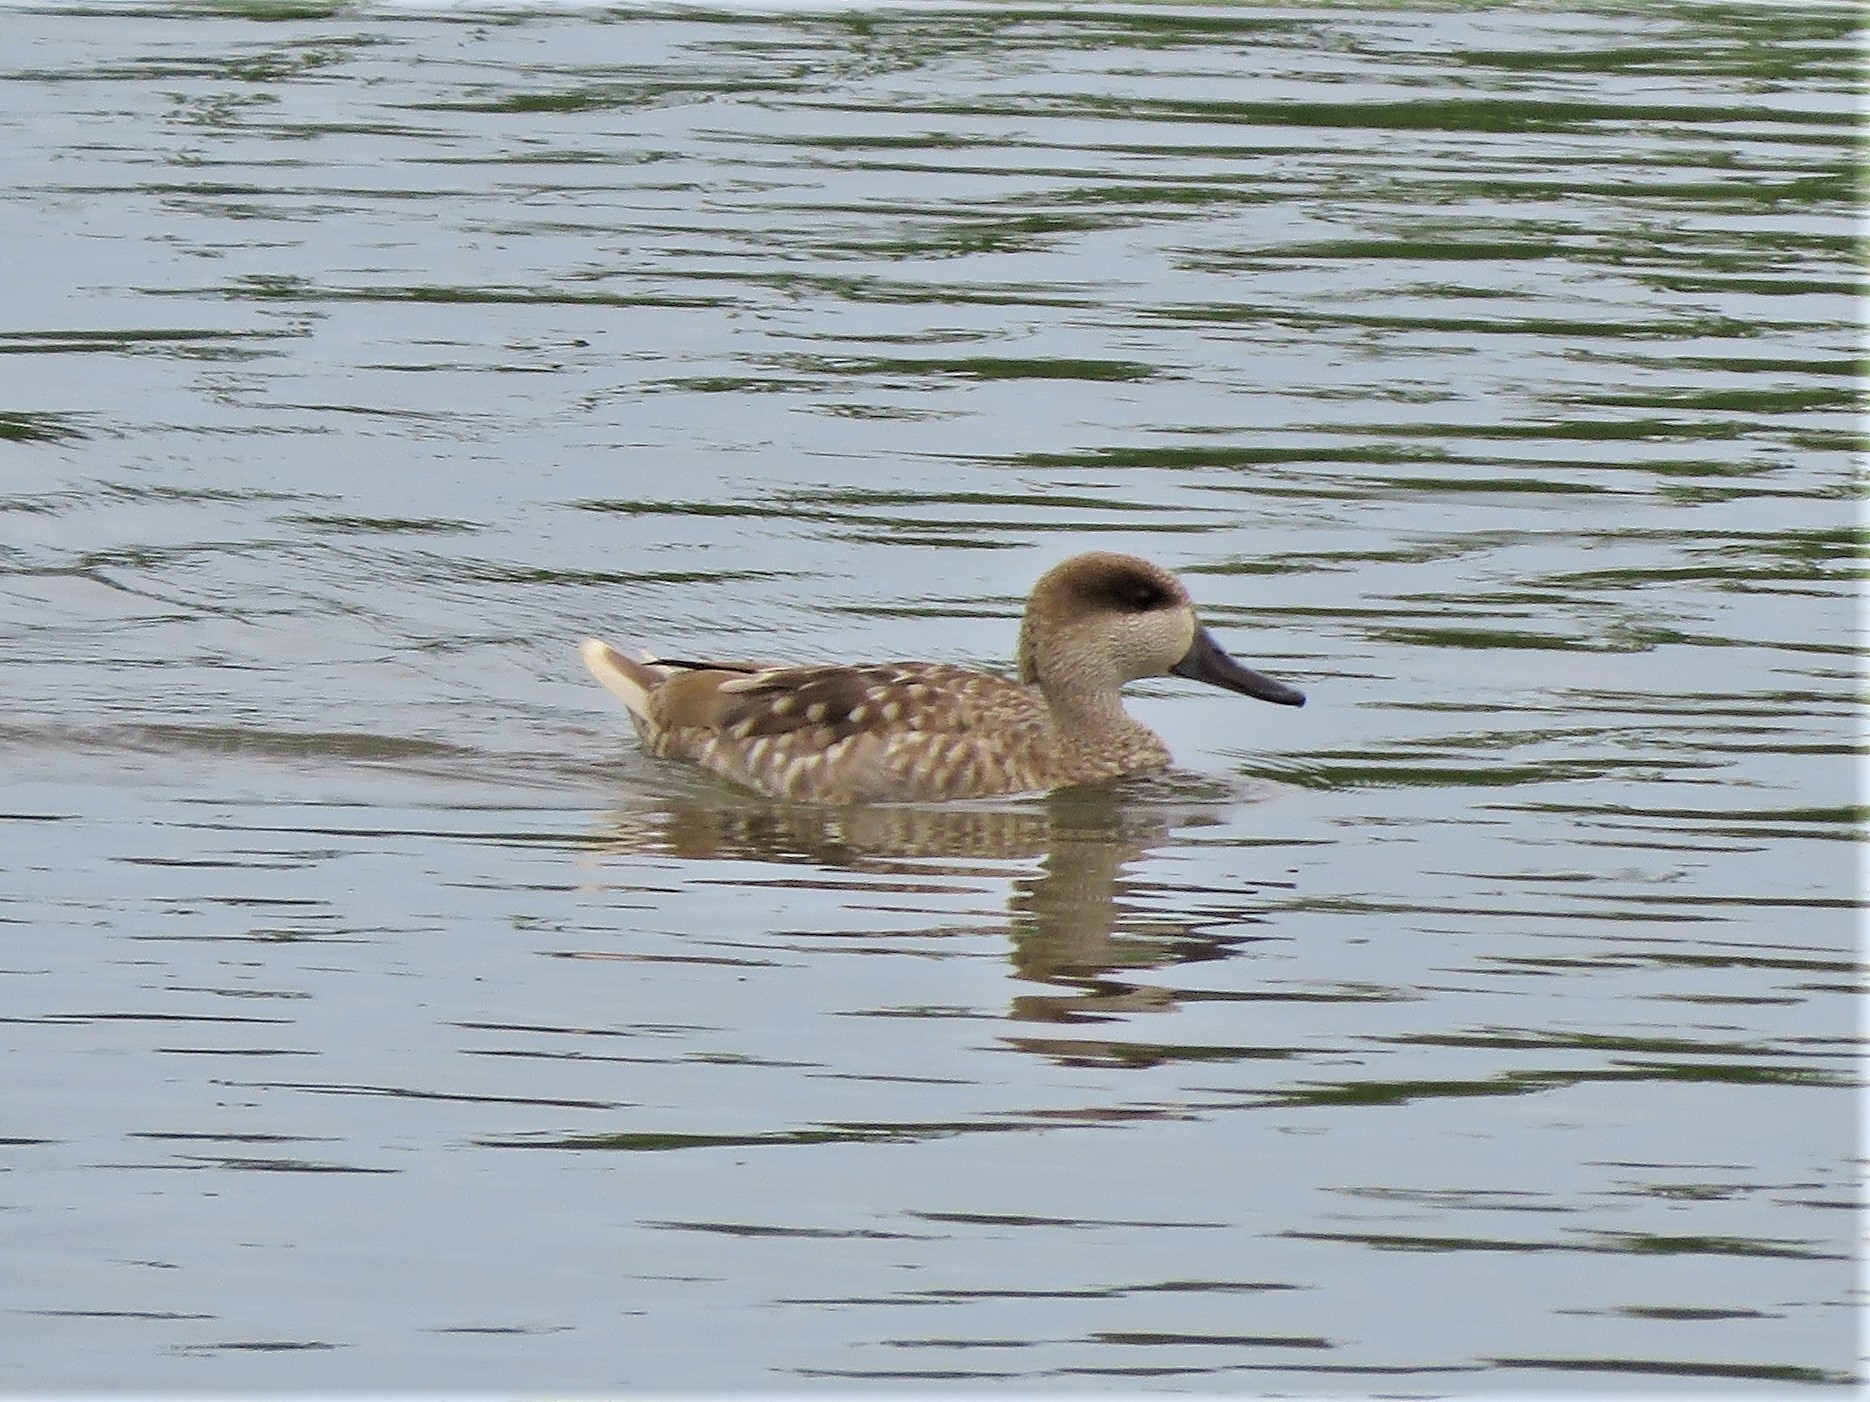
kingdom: Animalia
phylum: Chordata
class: Aves
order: Anseriformes
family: Anatidae
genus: Marmaronetta
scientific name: Marmaronetta angustirostris
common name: Marbled duck
